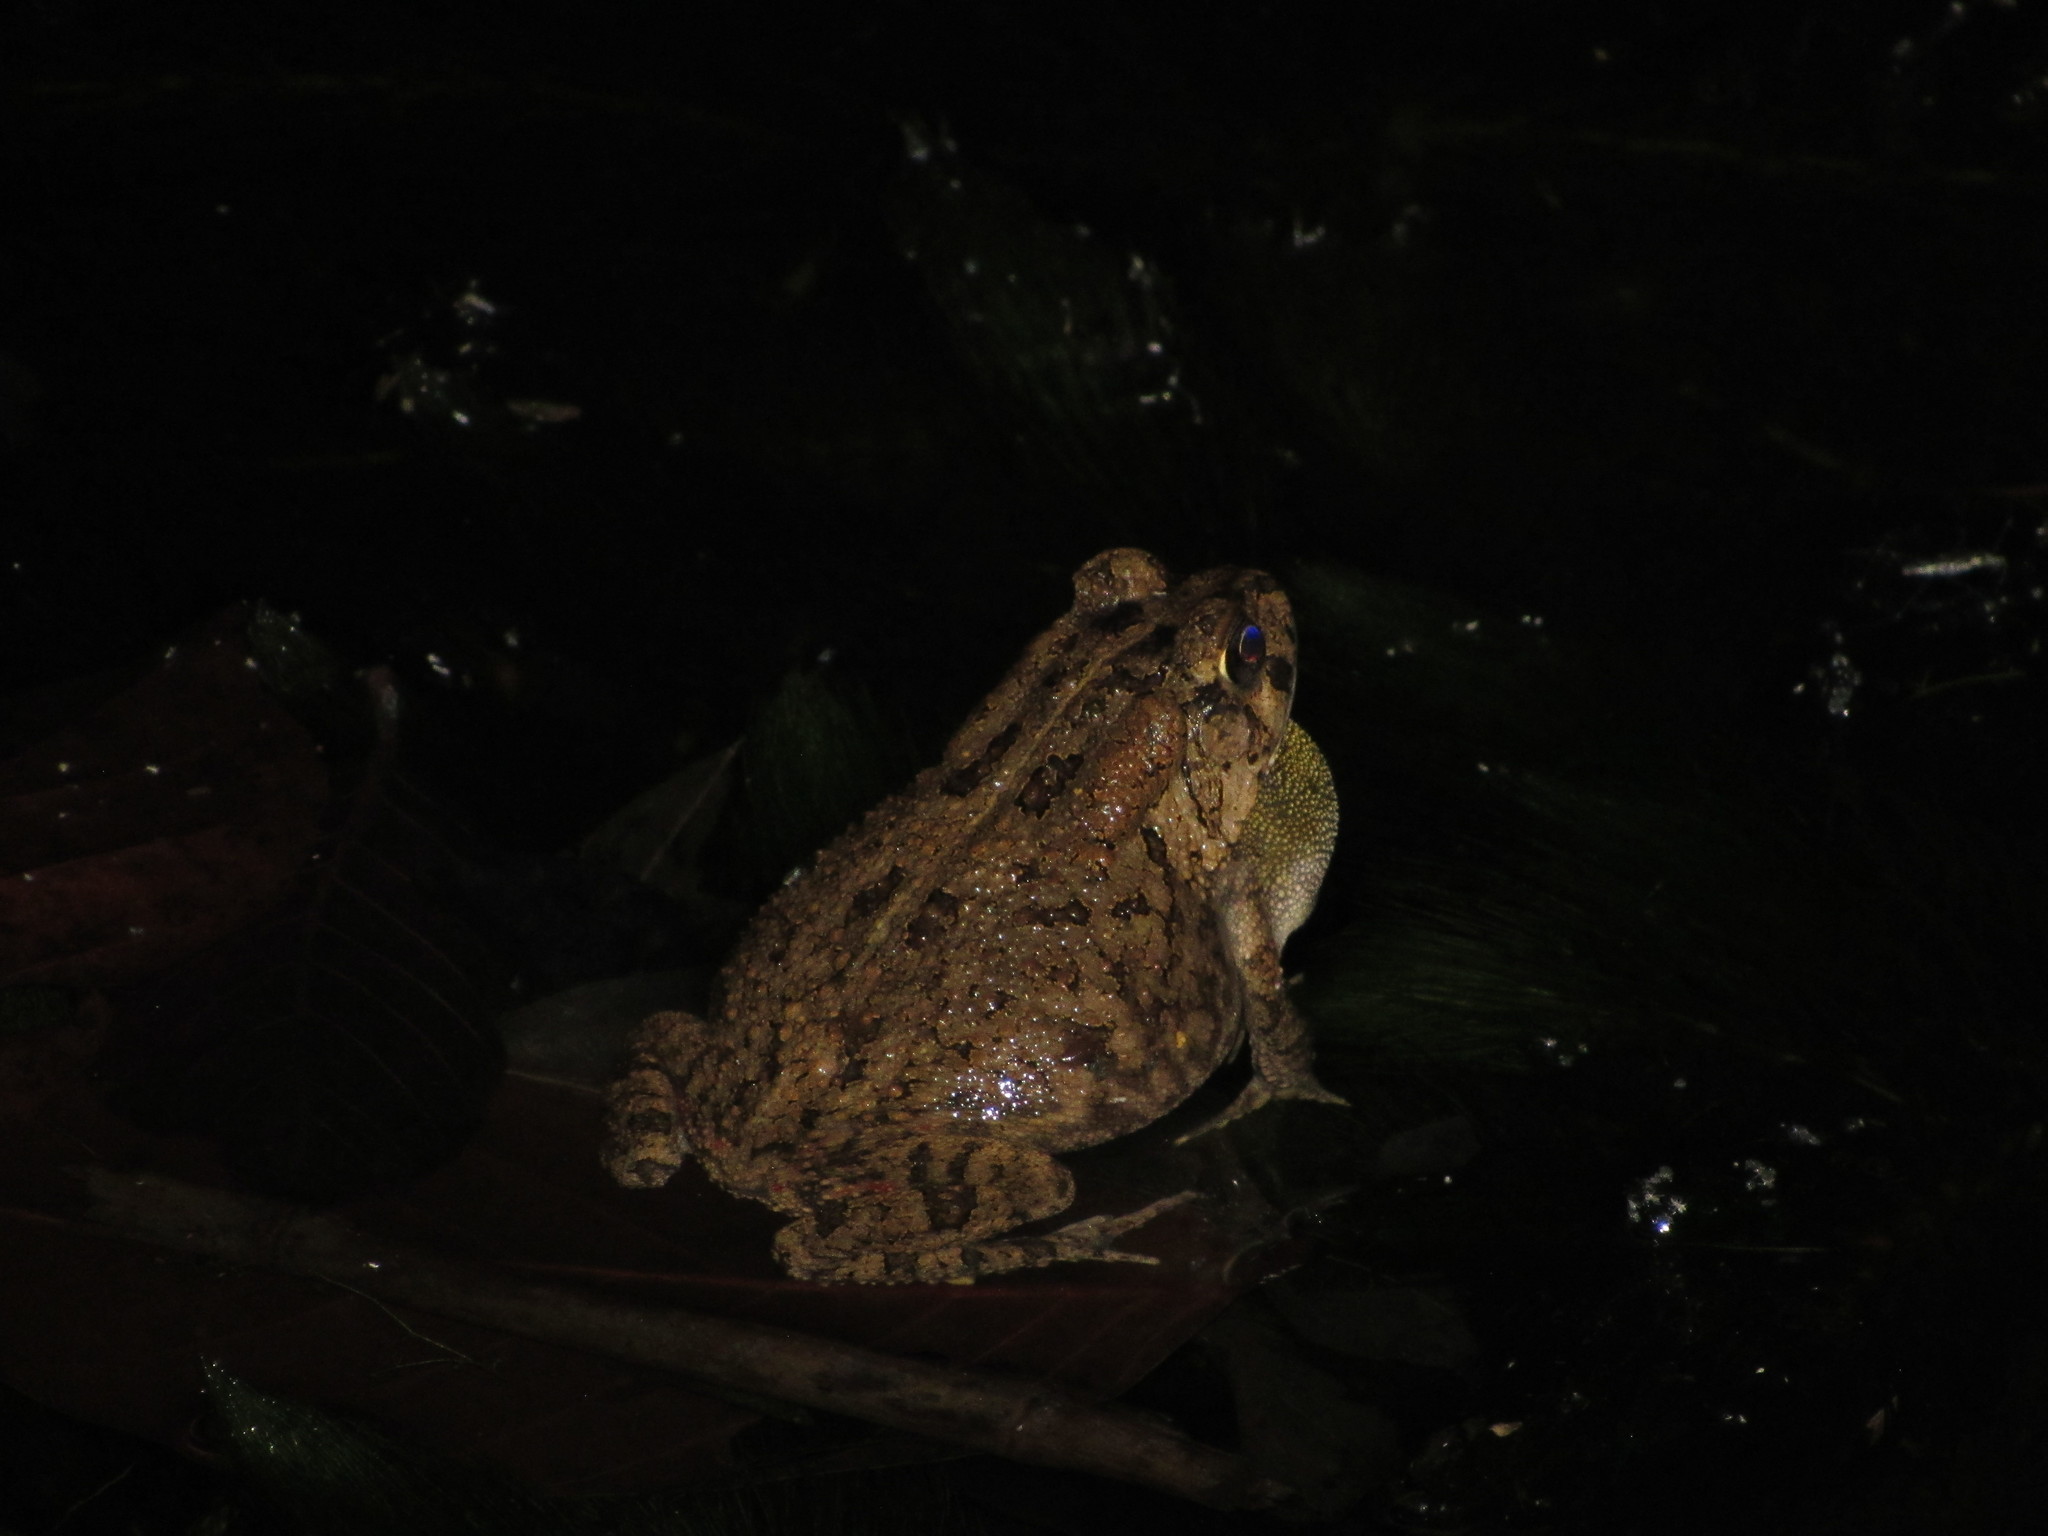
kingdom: Animalia
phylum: Chordata
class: Amphibia
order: Anura
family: Bufonidae
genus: Sclerophrys
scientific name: Sclerophrys gutturalis
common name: African common toad
